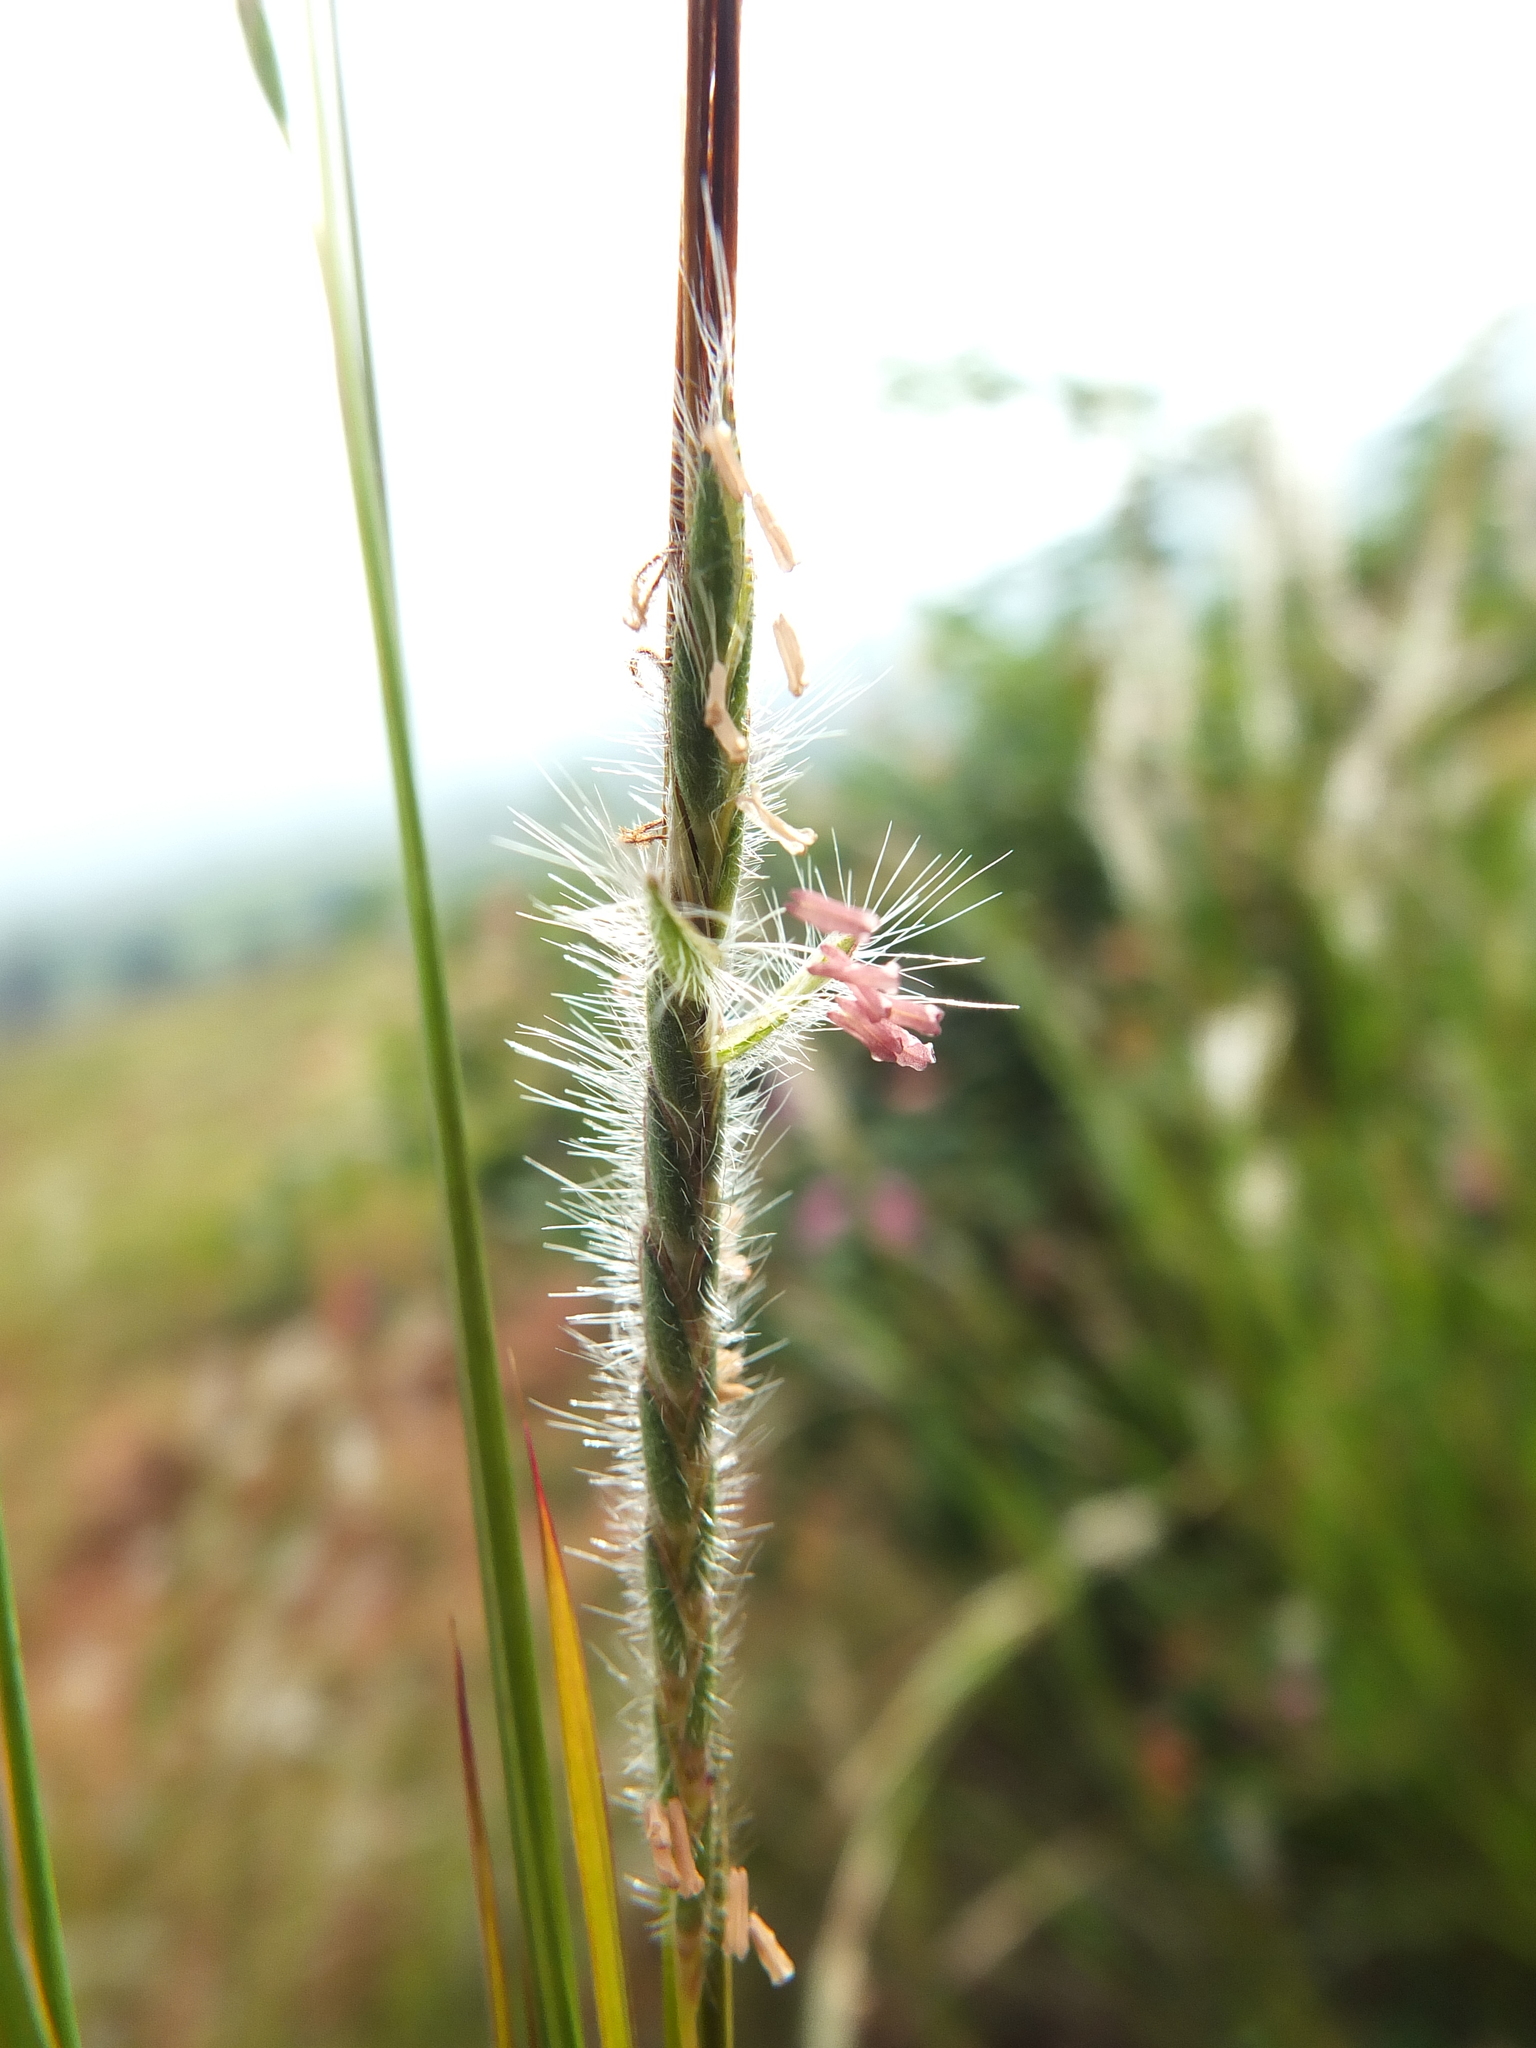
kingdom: Plantae
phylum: Tracheophyta
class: Liliopsida
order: Poales
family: Poaceae
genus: Heteropogon
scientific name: Heteropogon contortus
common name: Tanglehead
